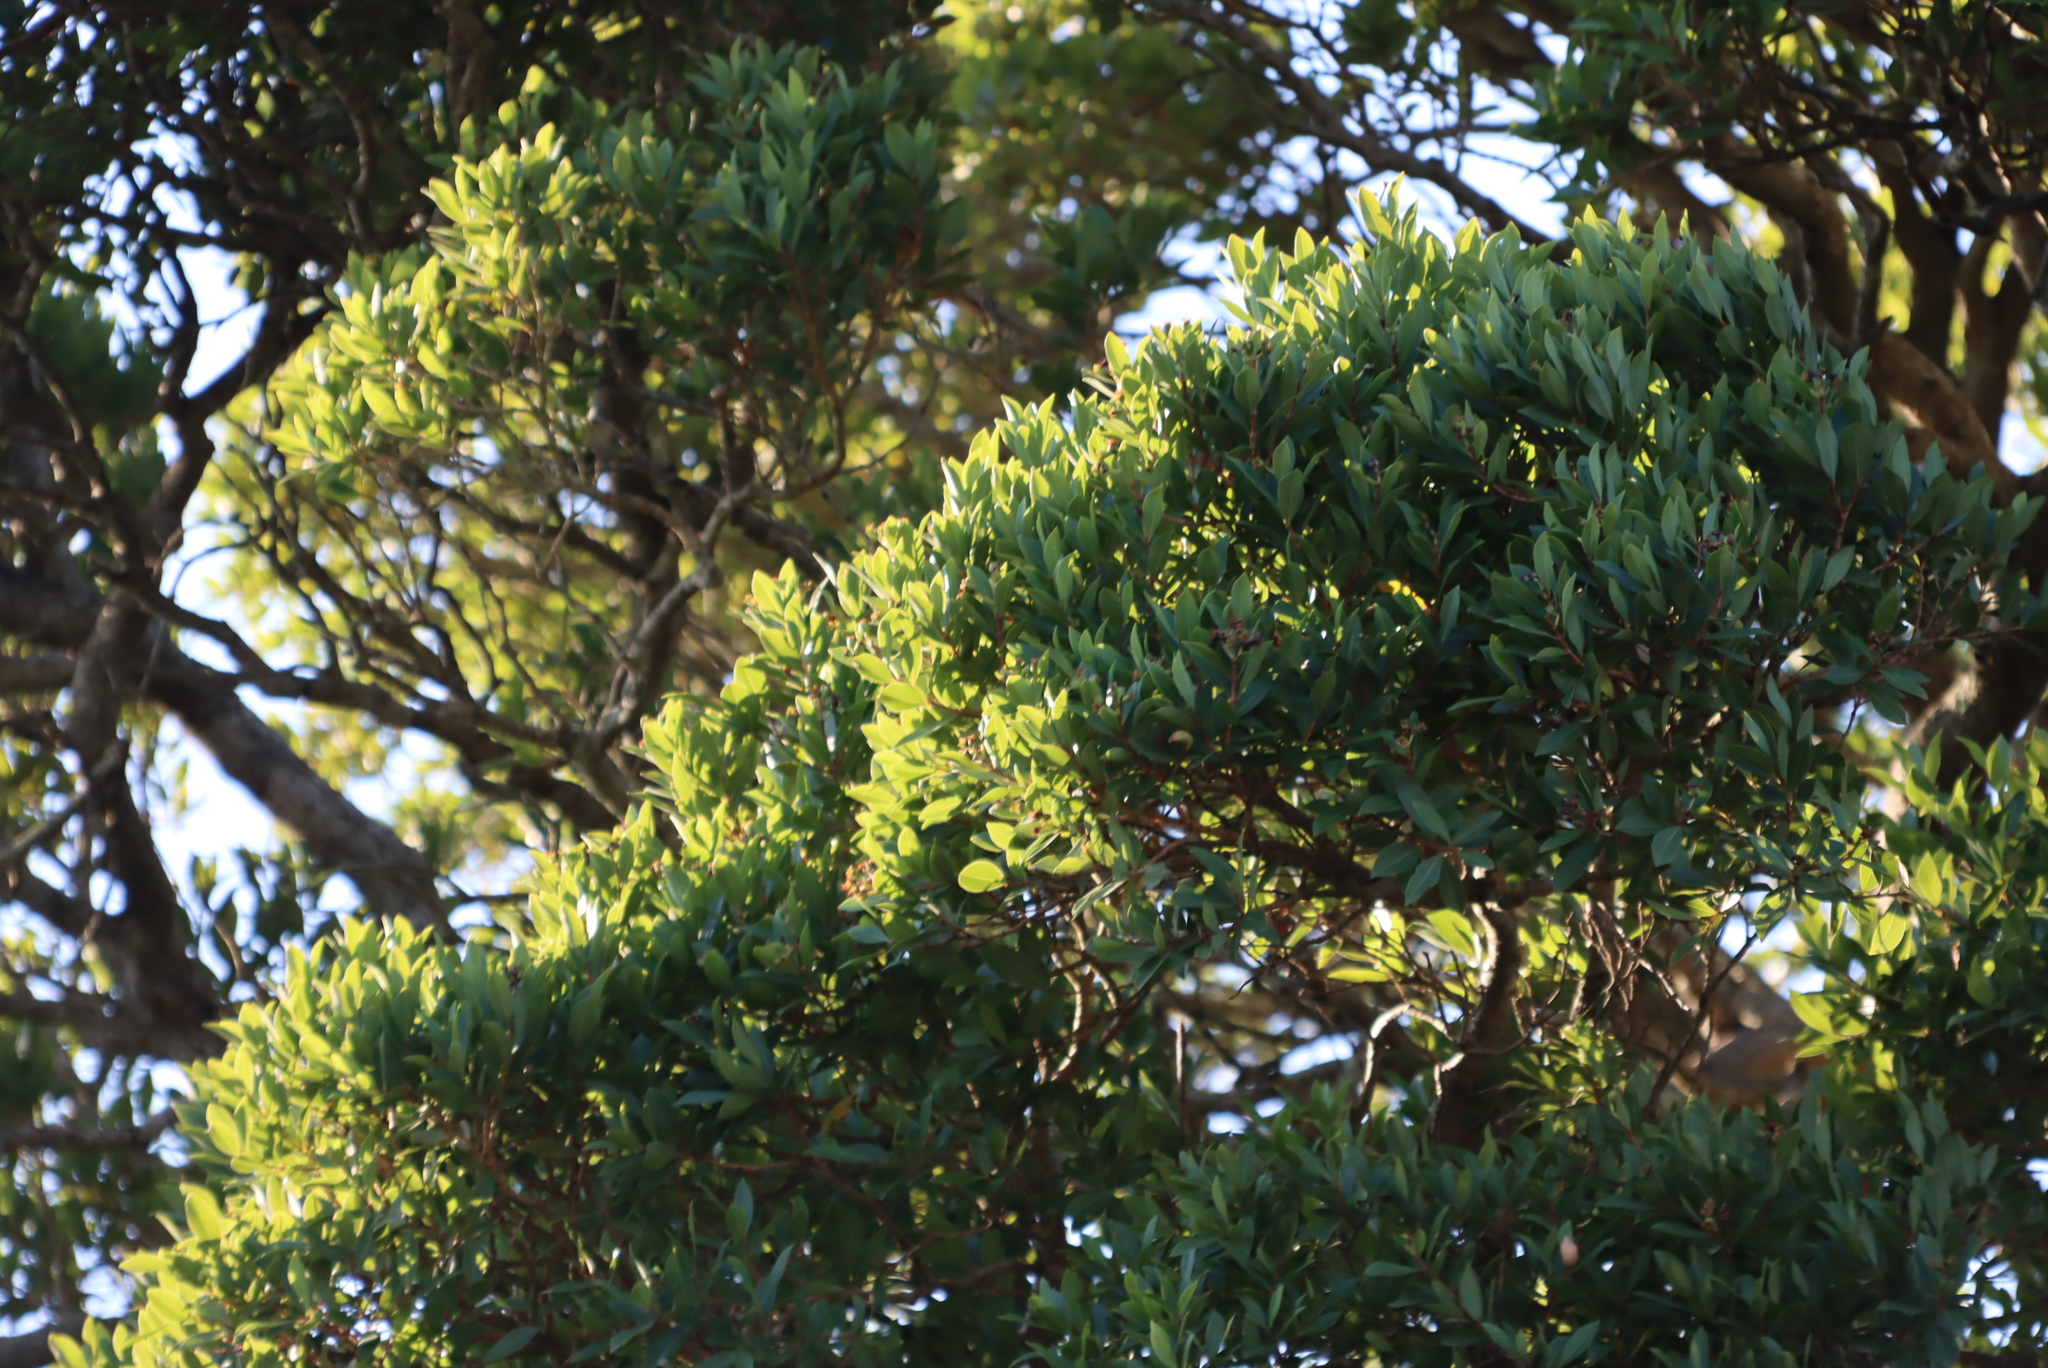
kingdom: Plantae
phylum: Tracheophyta
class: Magnoliopsida
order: Myrtales
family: Myrtaceae
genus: Syzygium
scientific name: Syzygium legatii
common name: Mountain waterberry
